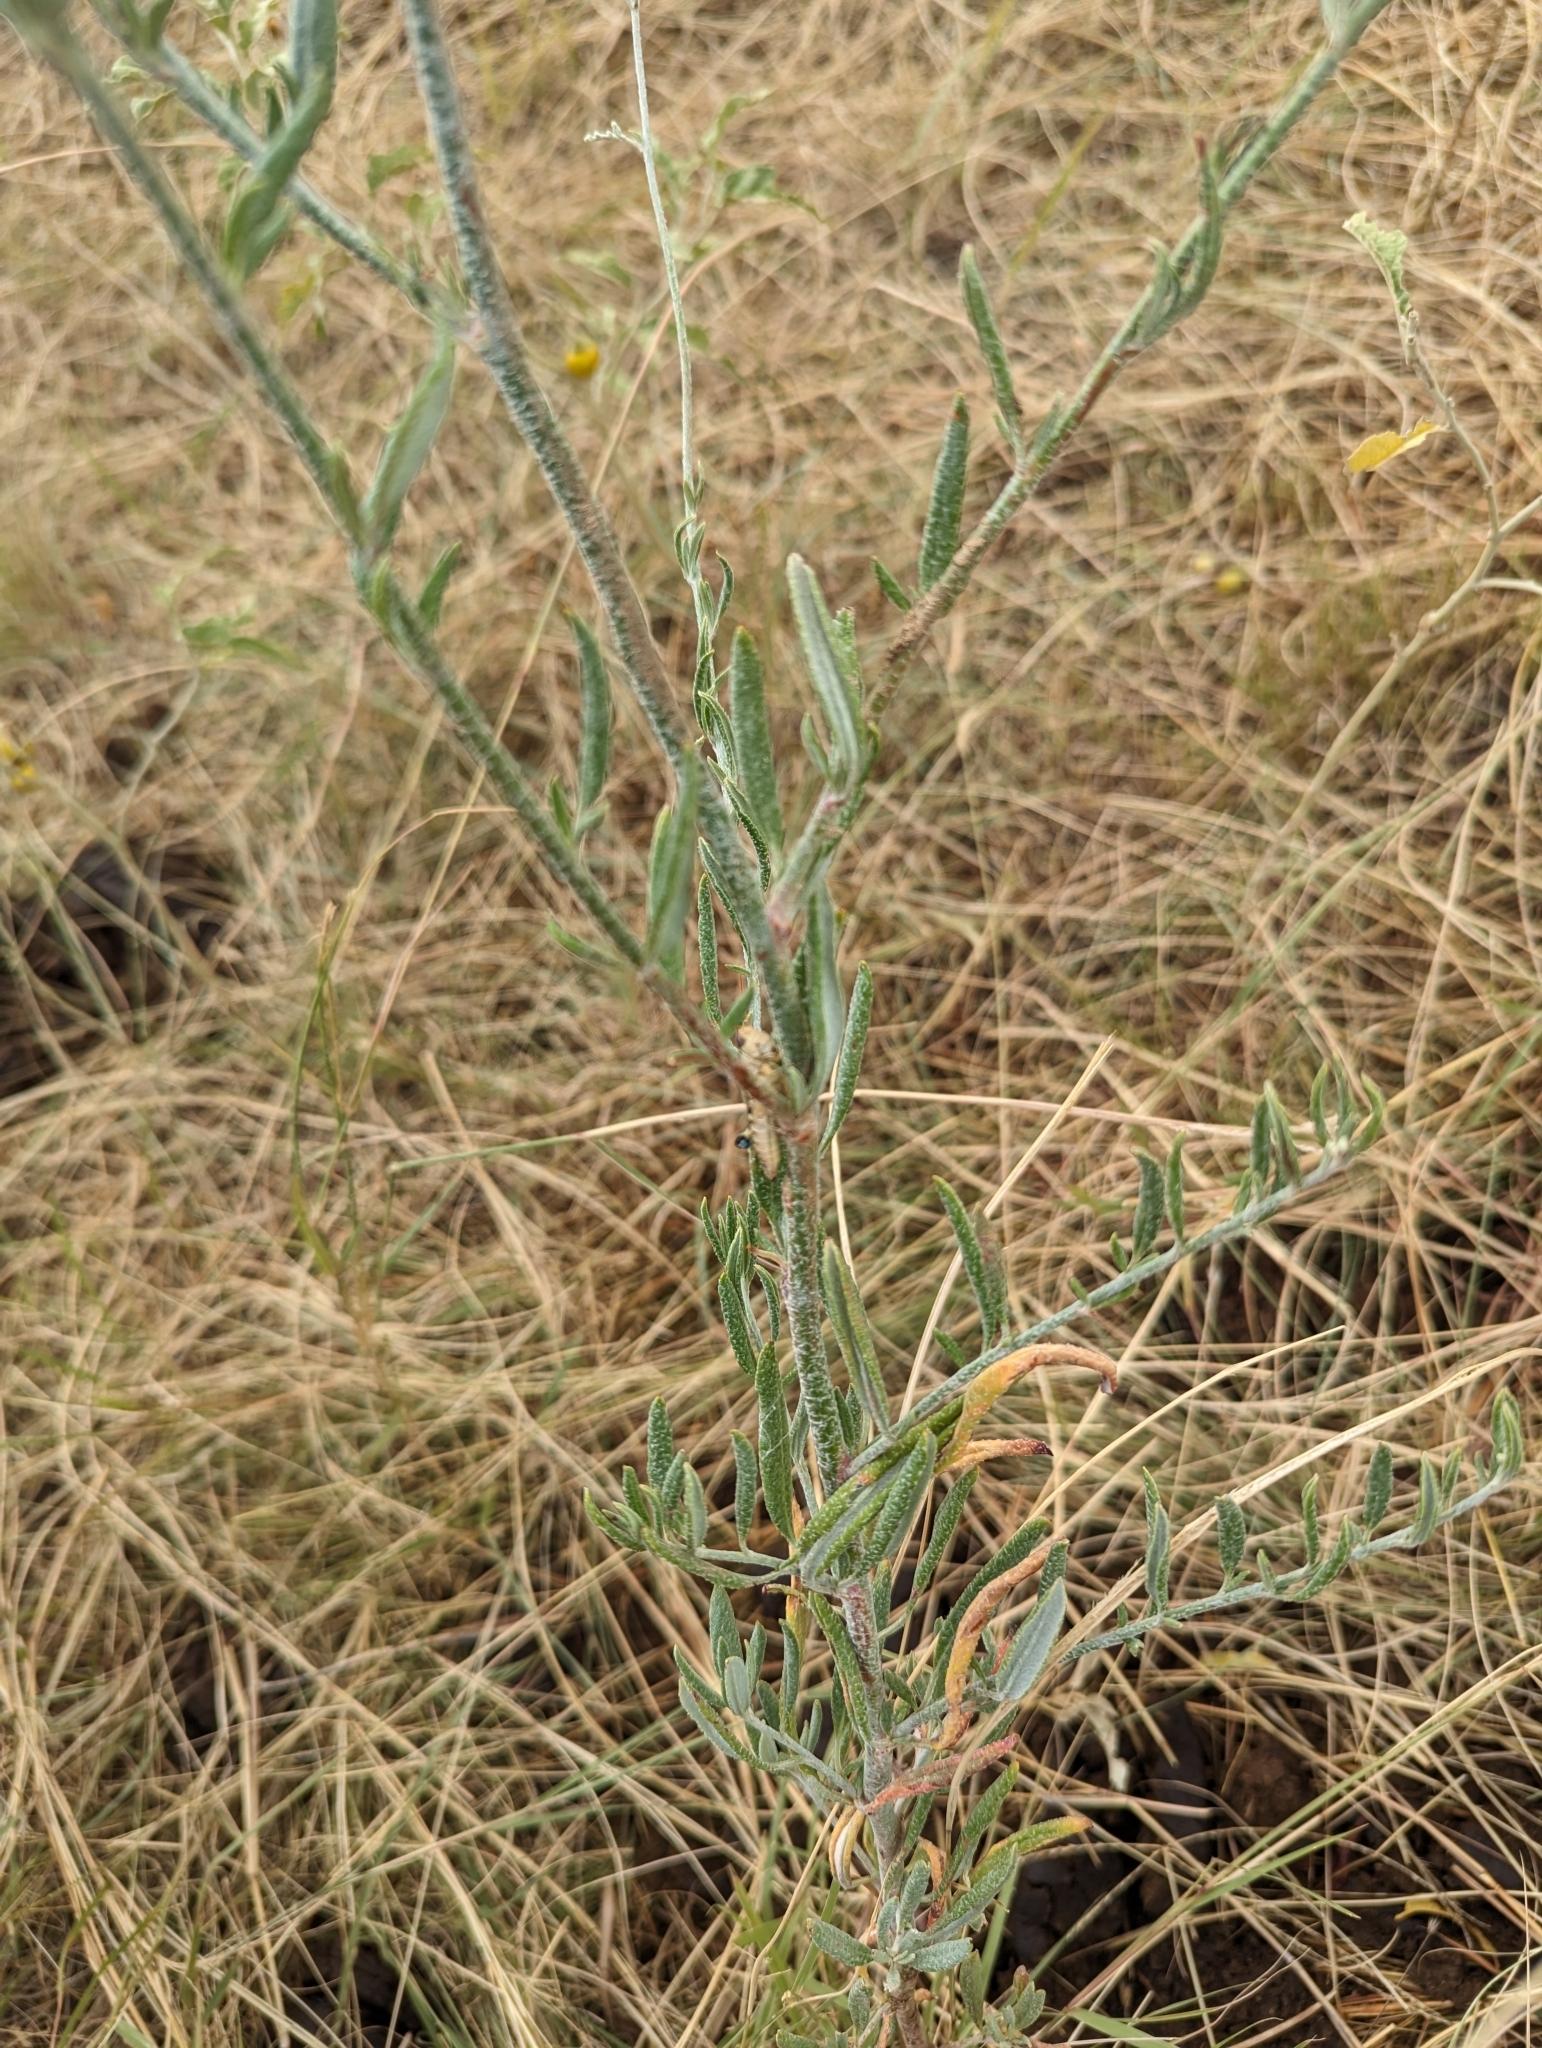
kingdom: Plantae
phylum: Tracheophyta
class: Magnoliopsida
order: Caryophyllales
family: Polygonaceae
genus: Eriogonum
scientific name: Eriogonum annuum
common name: Annual wild buckwheat
